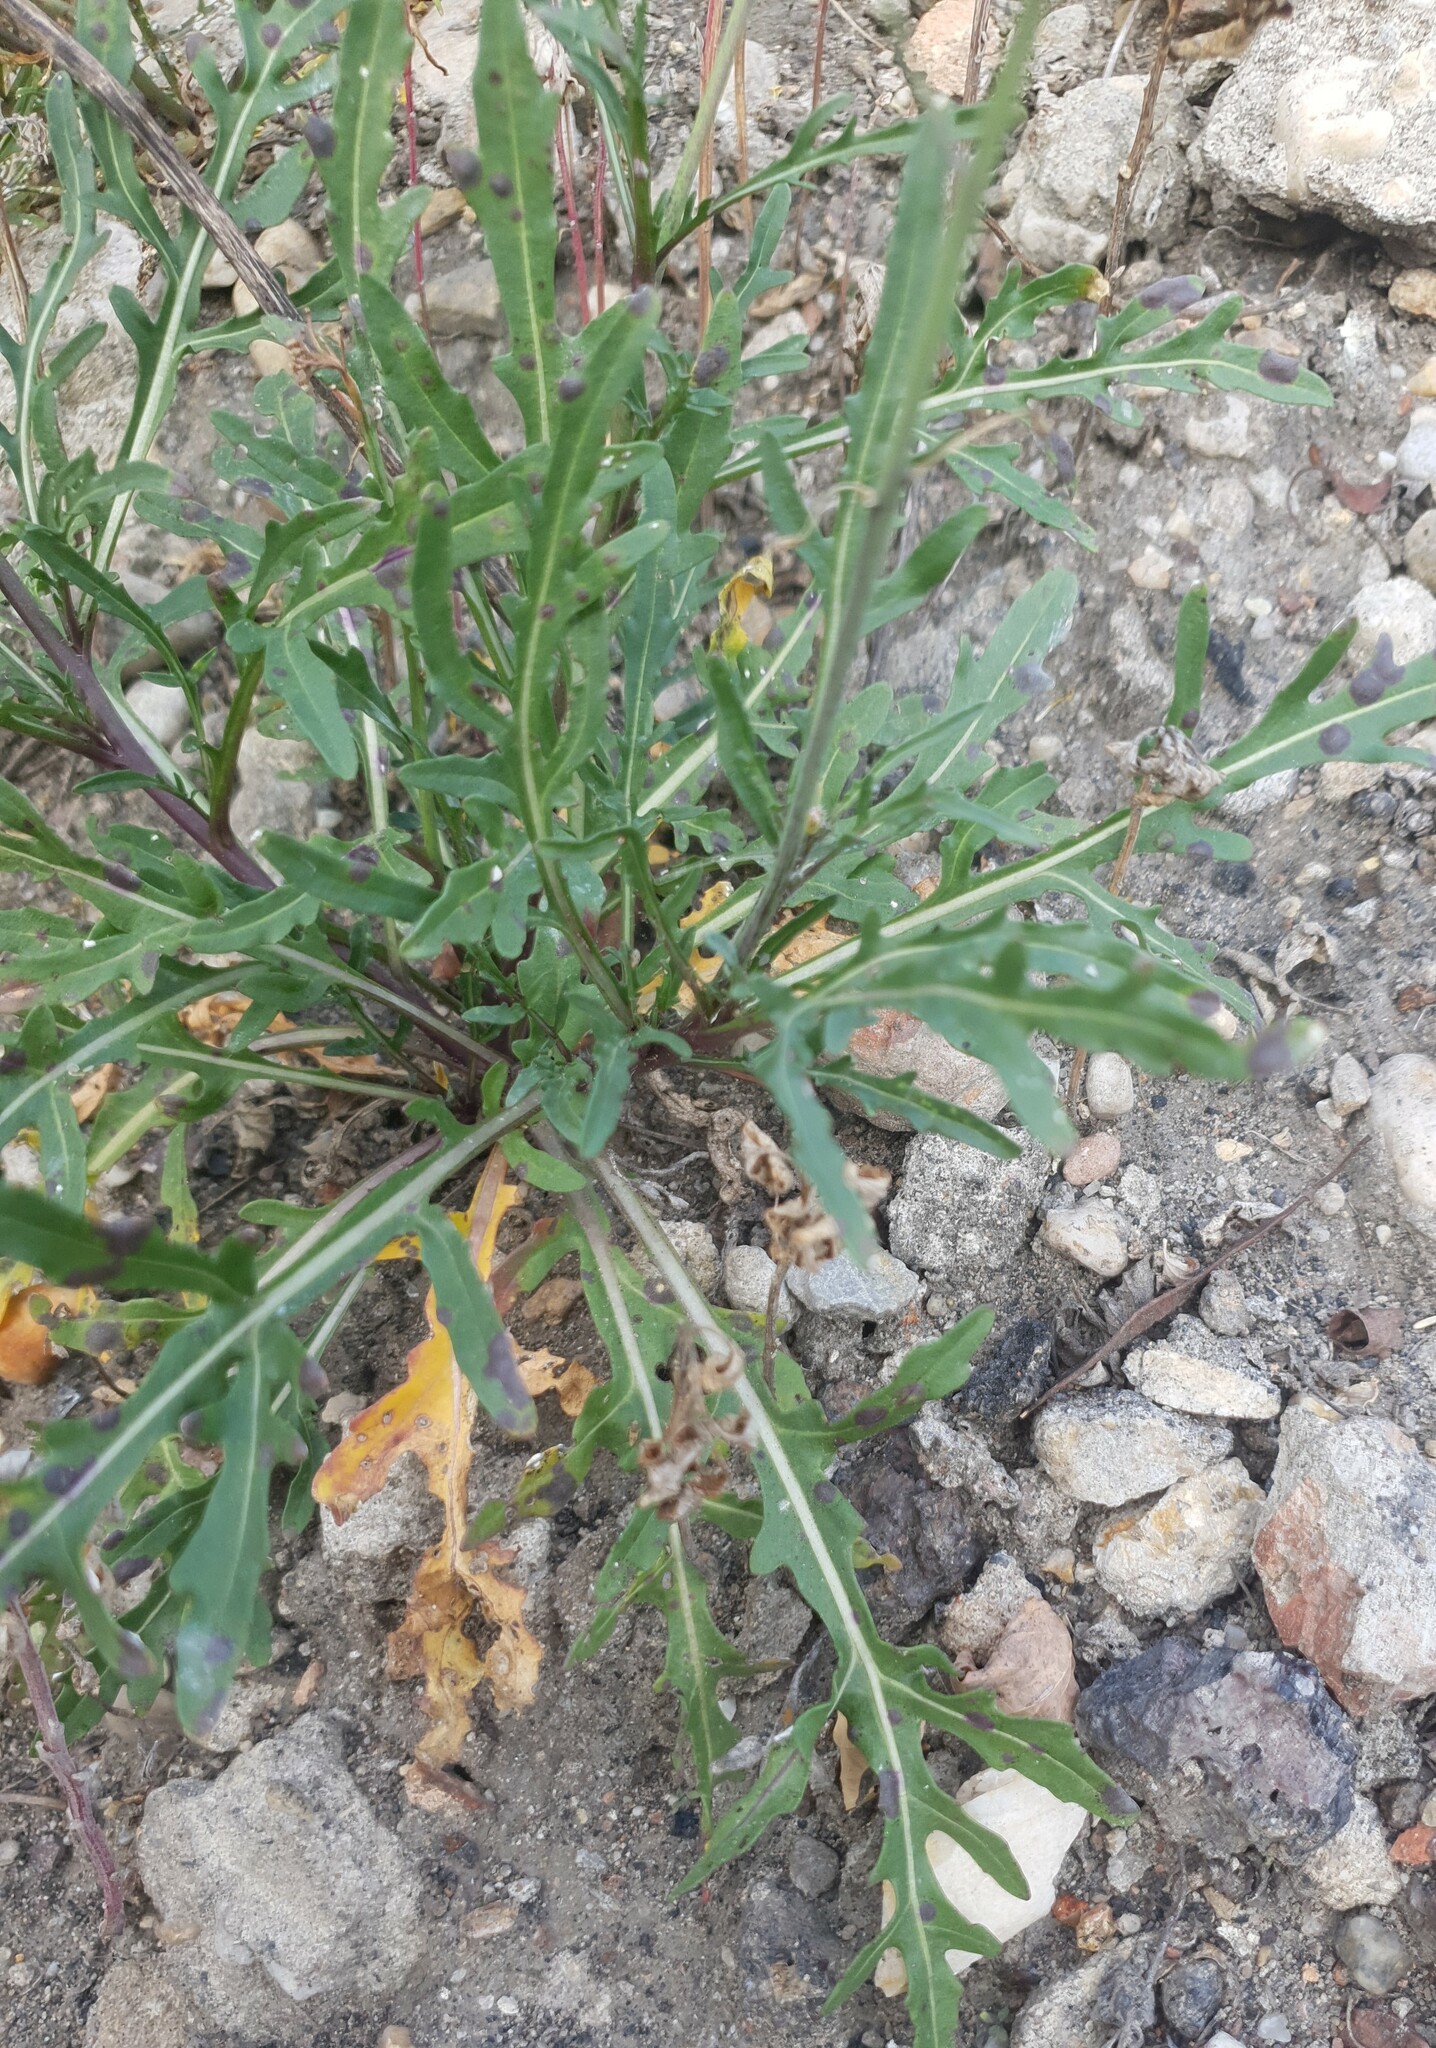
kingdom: Plantae
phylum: Tracheophyta
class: Magnoliopsida
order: Brassicales
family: Brassicaceae
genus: Diplotaxis
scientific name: Diplotaxis tenuifolia
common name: Perennial wall-rocket
